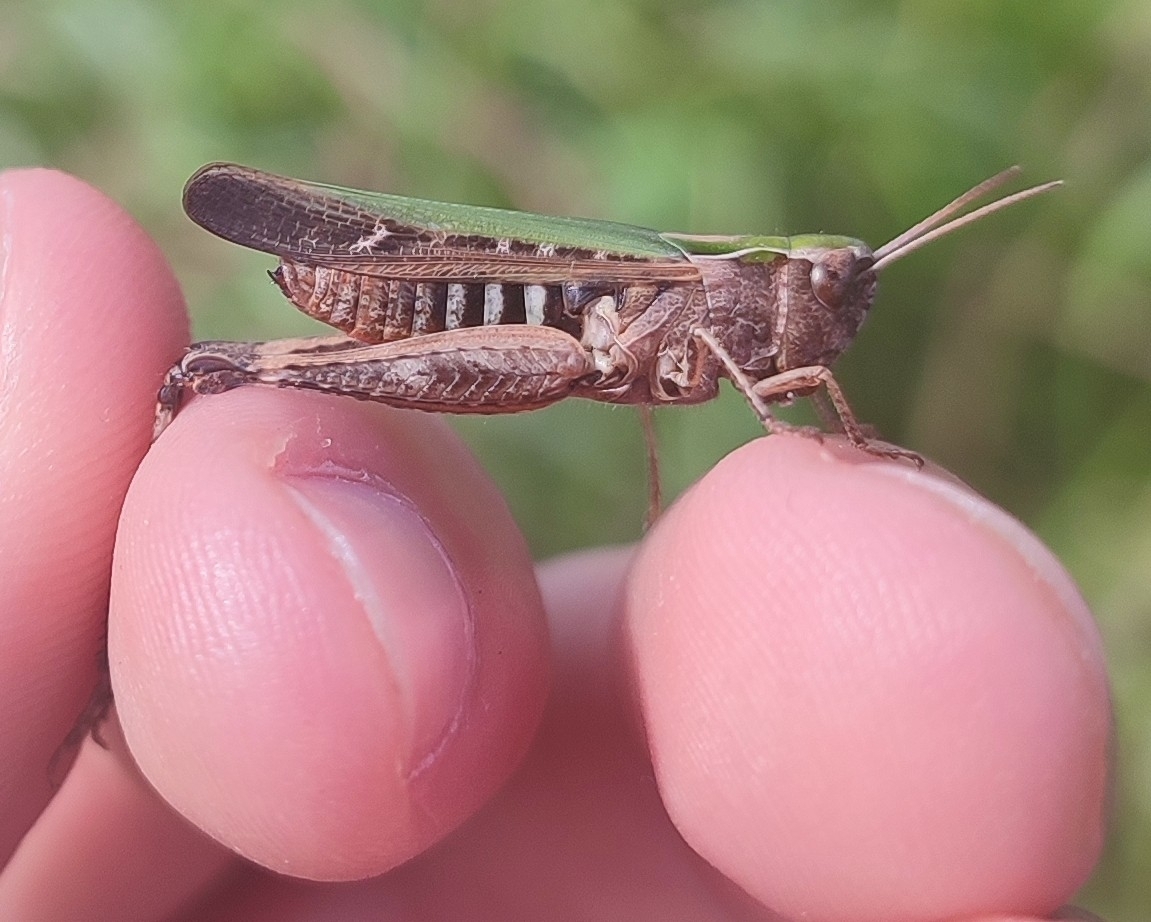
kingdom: Animalia
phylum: Arthropoda
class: Insecta
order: Orthoptera
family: Acrididae
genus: Omocestus
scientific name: Omocestus rufipes
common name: Woodland grasshopper
